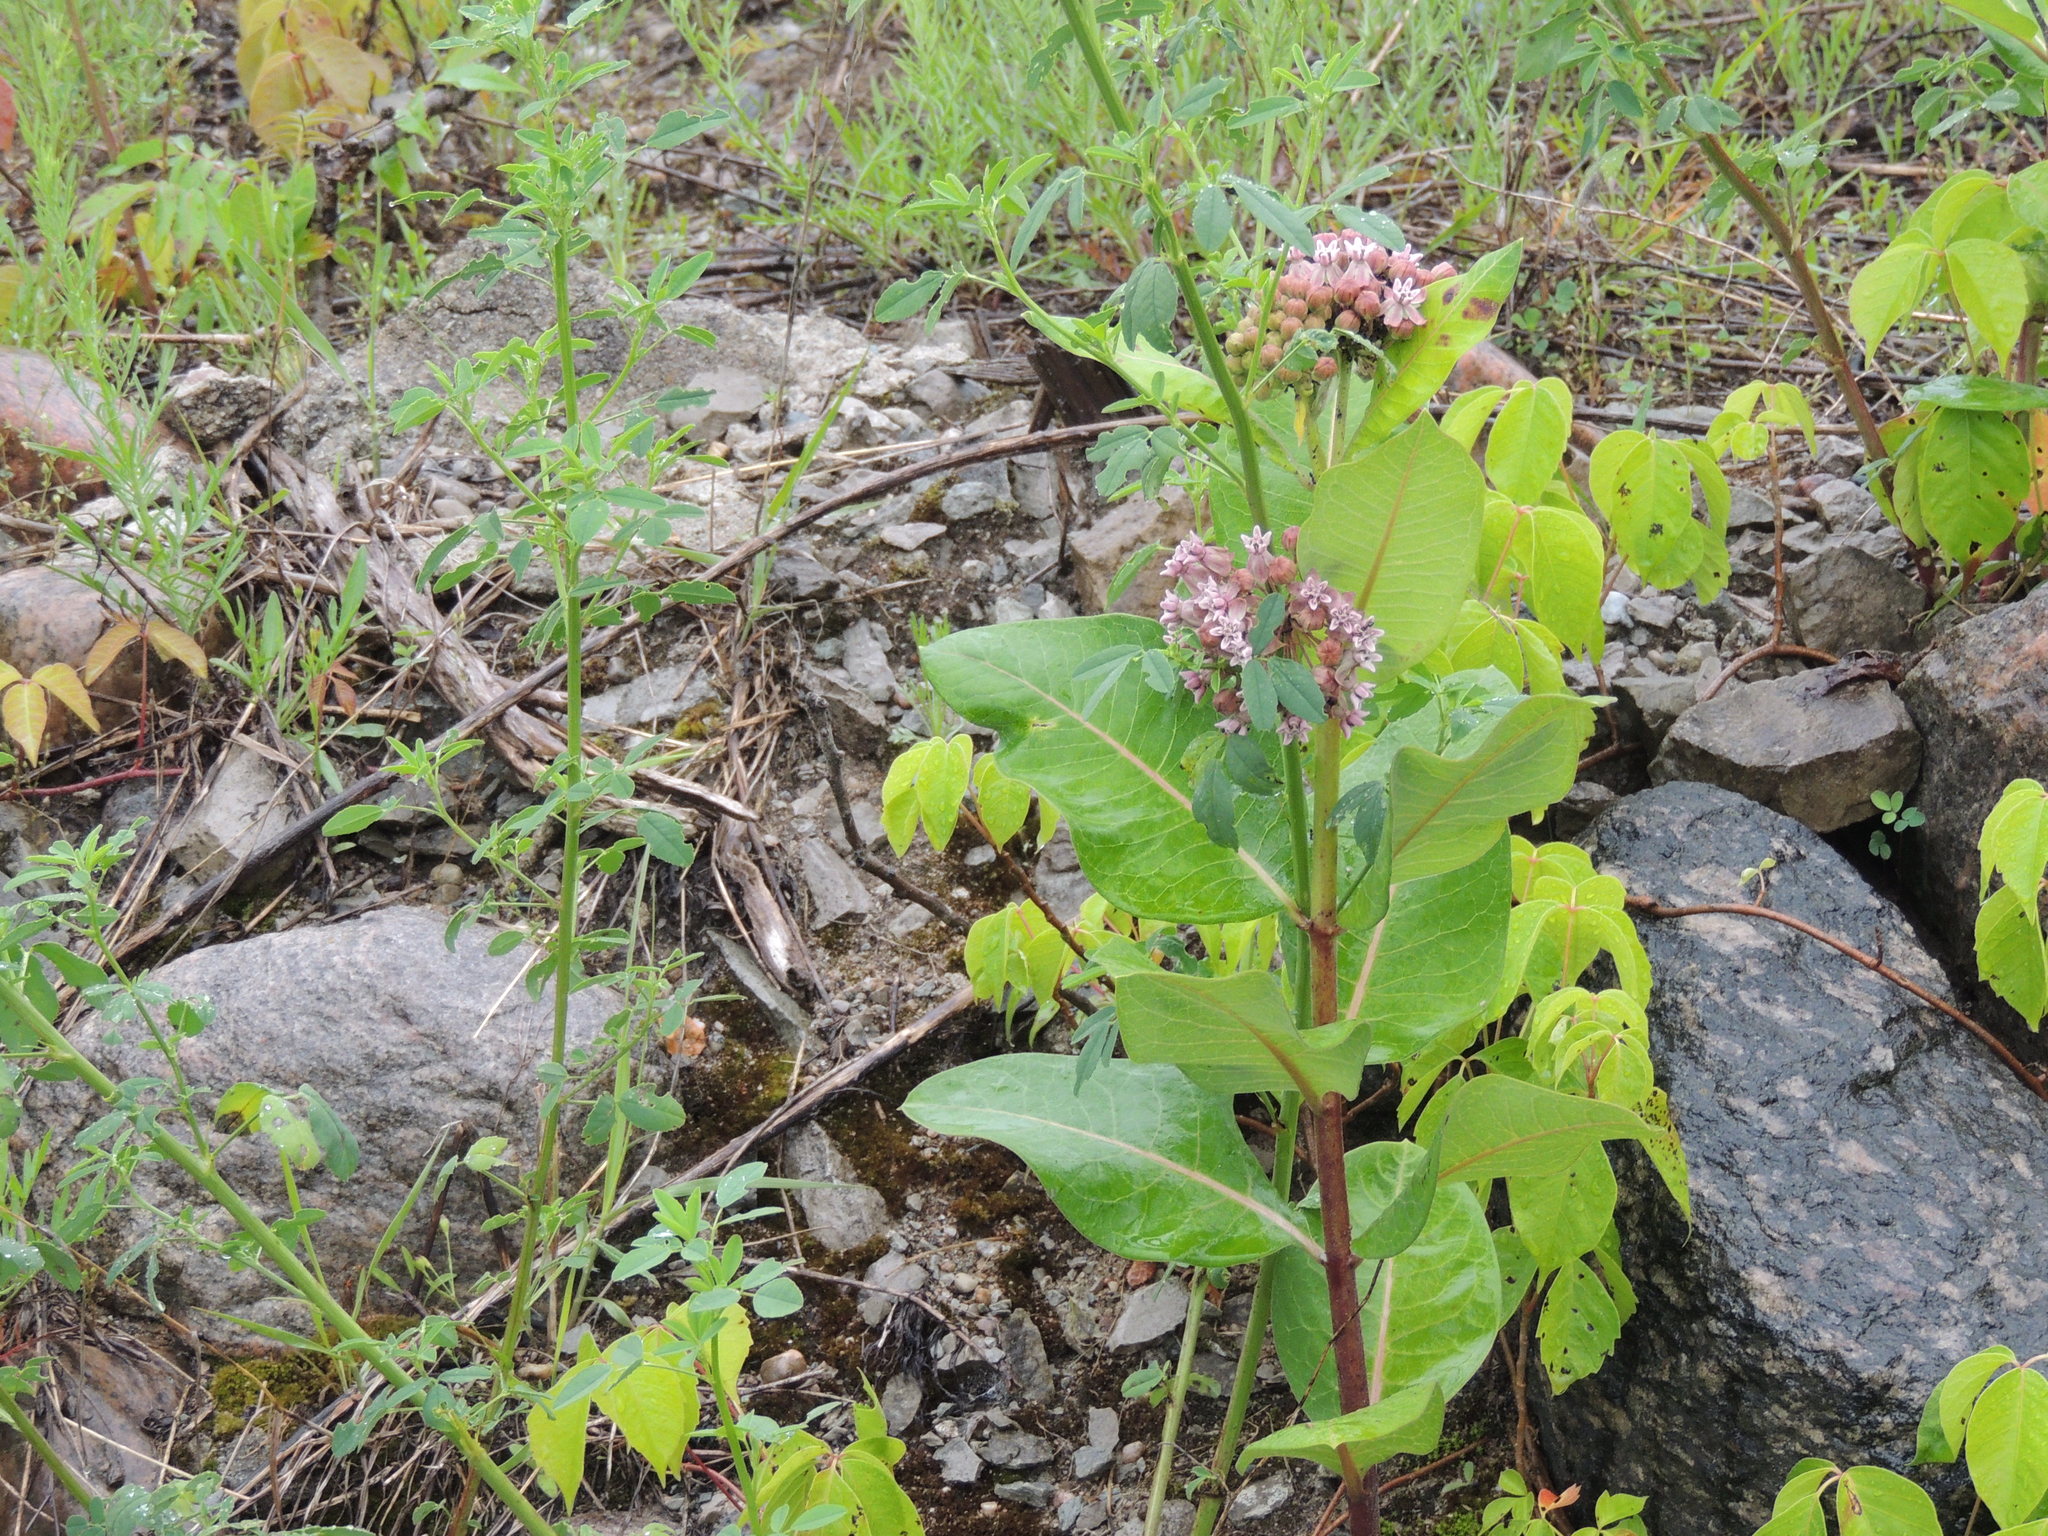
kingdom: Plantae
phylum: Tracheophyta
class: Magnoliopsida
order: Gentianales
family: Apocynaceae
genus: Asclepias
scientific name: Asclepias syriaca
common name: Common milkweed
